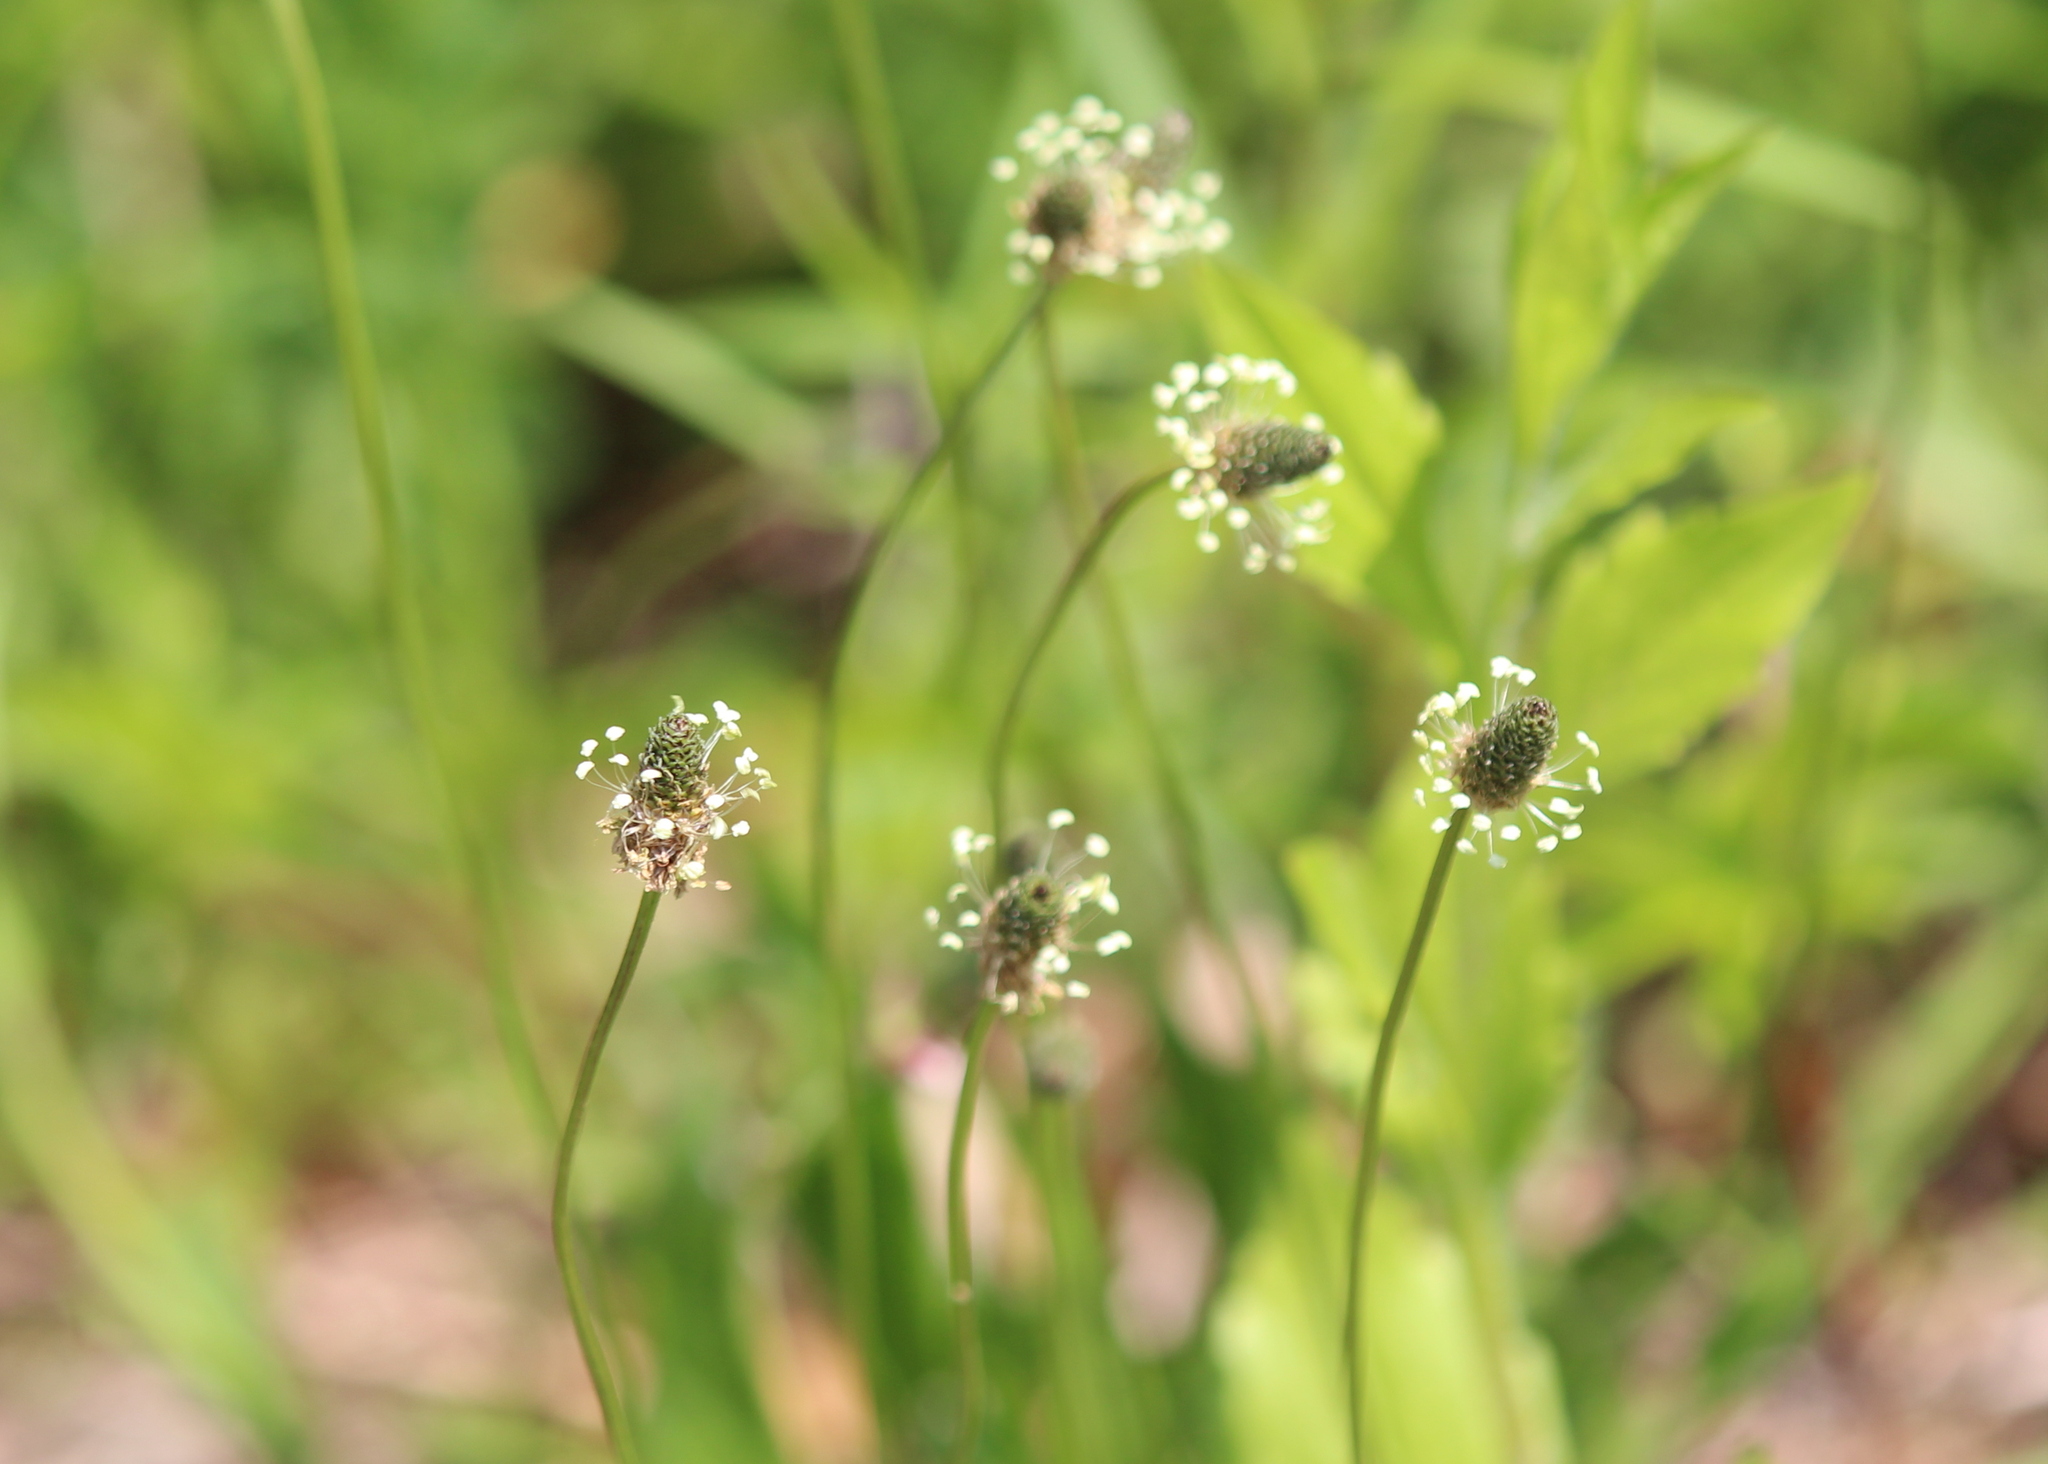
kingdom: Plantae
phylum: Tracheophyta
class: Magnoliopsida
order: Lamiales
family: Plantaginaceae
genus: Plantago
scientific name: Plantago lanceolata
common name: Ribwort plantain
